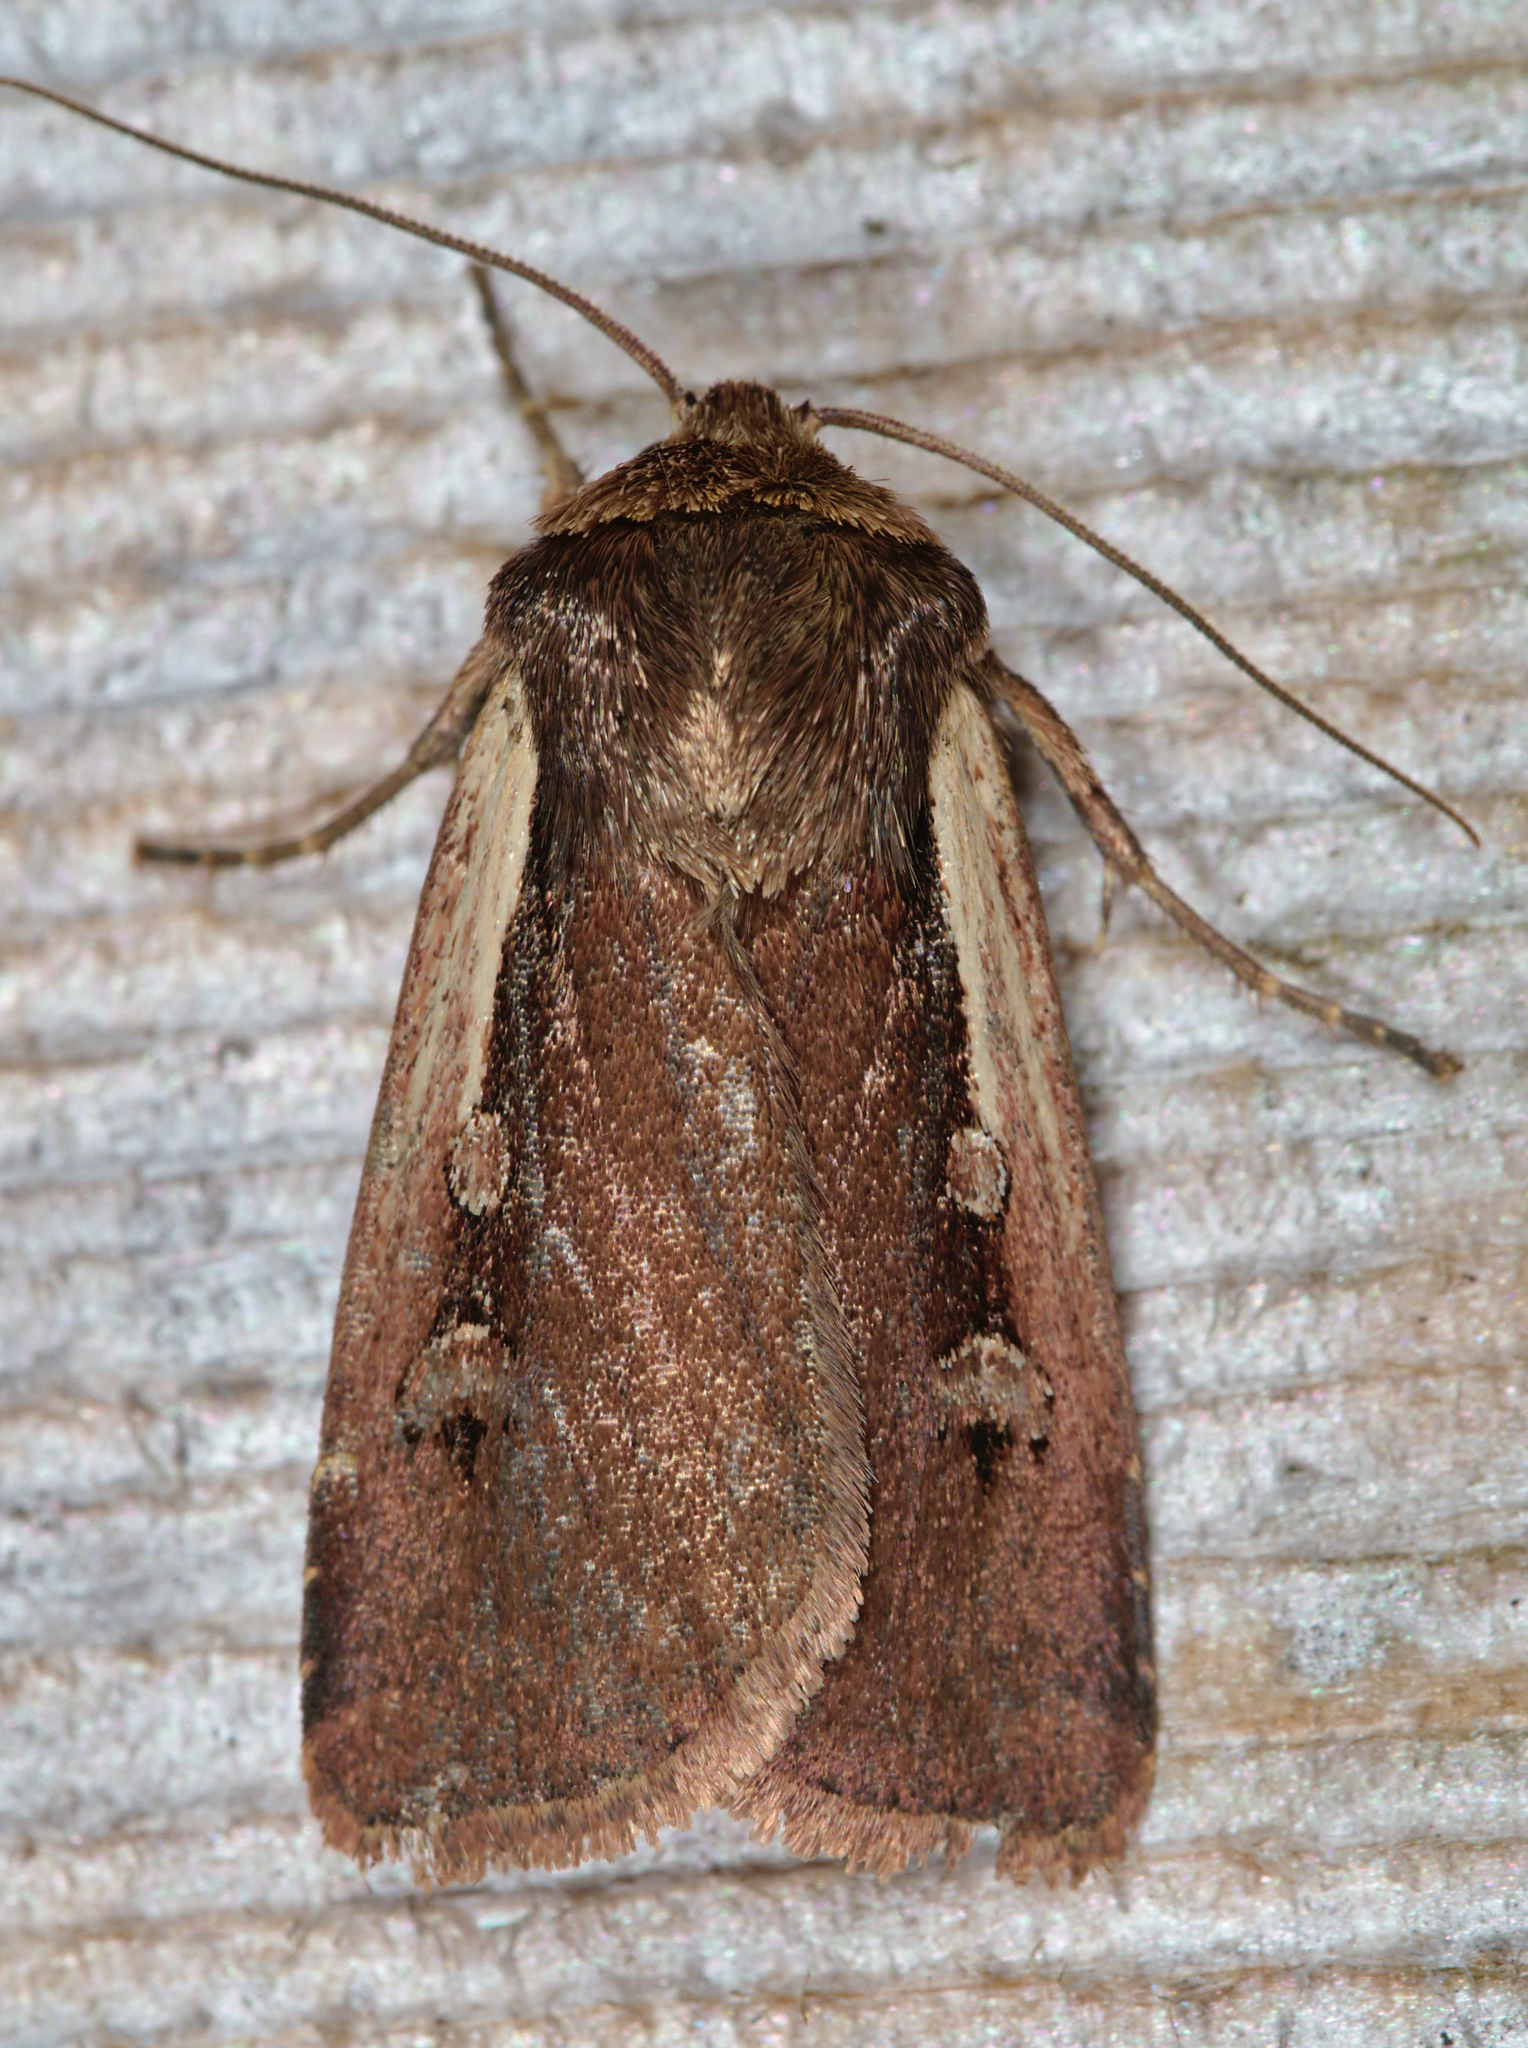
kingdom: Animalia
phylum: Arthropoda
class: Insecta
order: Lepidoptera
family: Noctuidae
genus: Ochropleura
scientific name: Ochropleura plecta
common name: Flame shoulder
